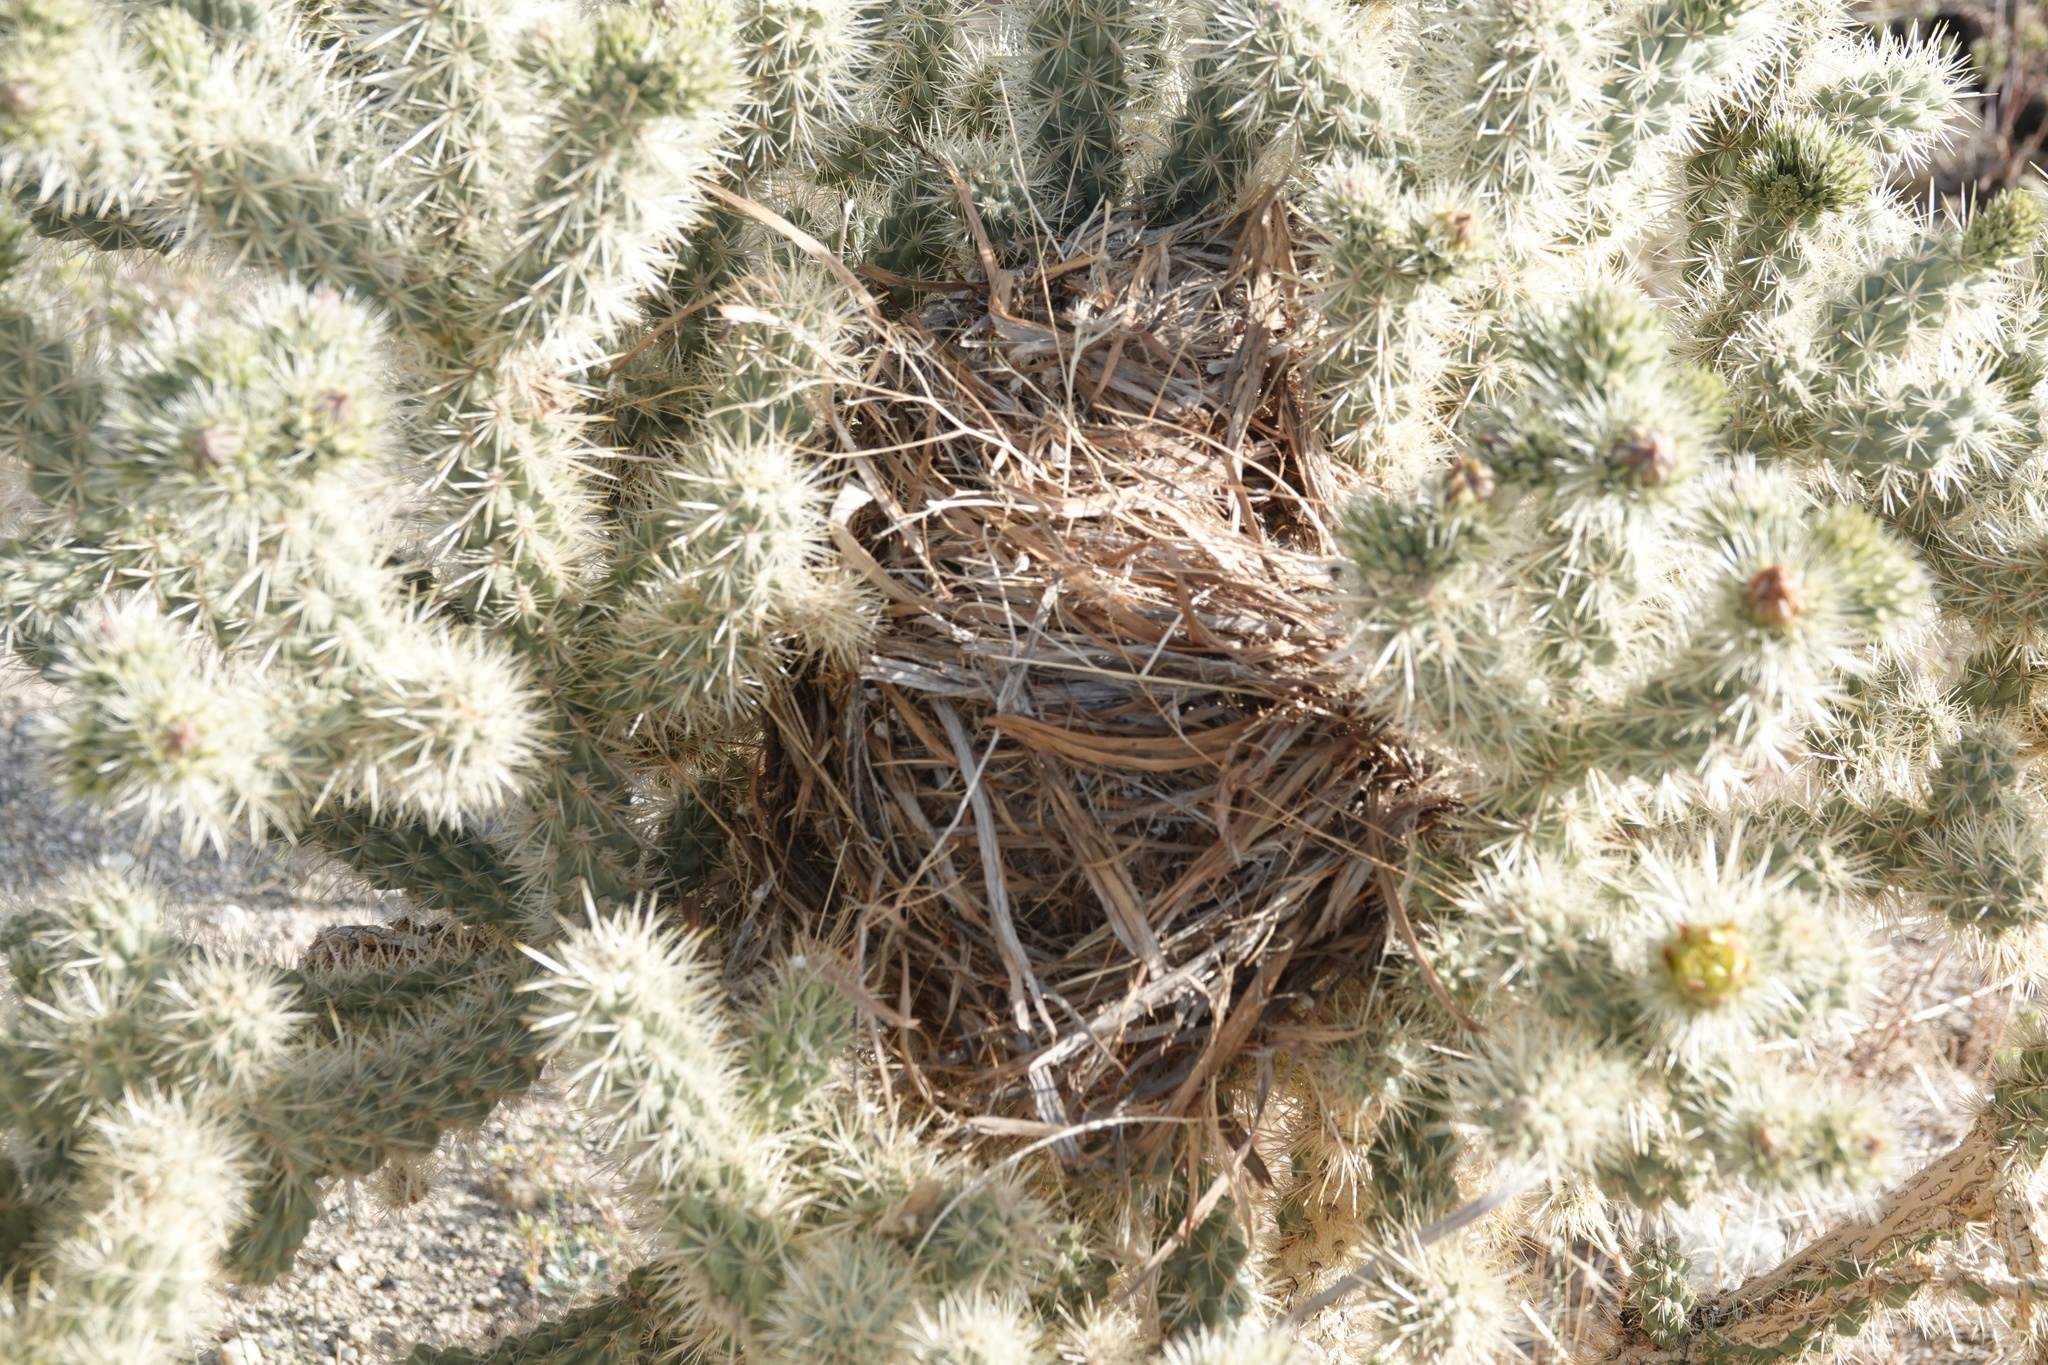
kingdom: Animalia
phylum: Chordata
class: Aves
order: Passeriformes
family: Troglodytidae
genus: Campylorhynchus
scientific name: Campylorhynchus brunneicapillus
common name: Cactus wren
